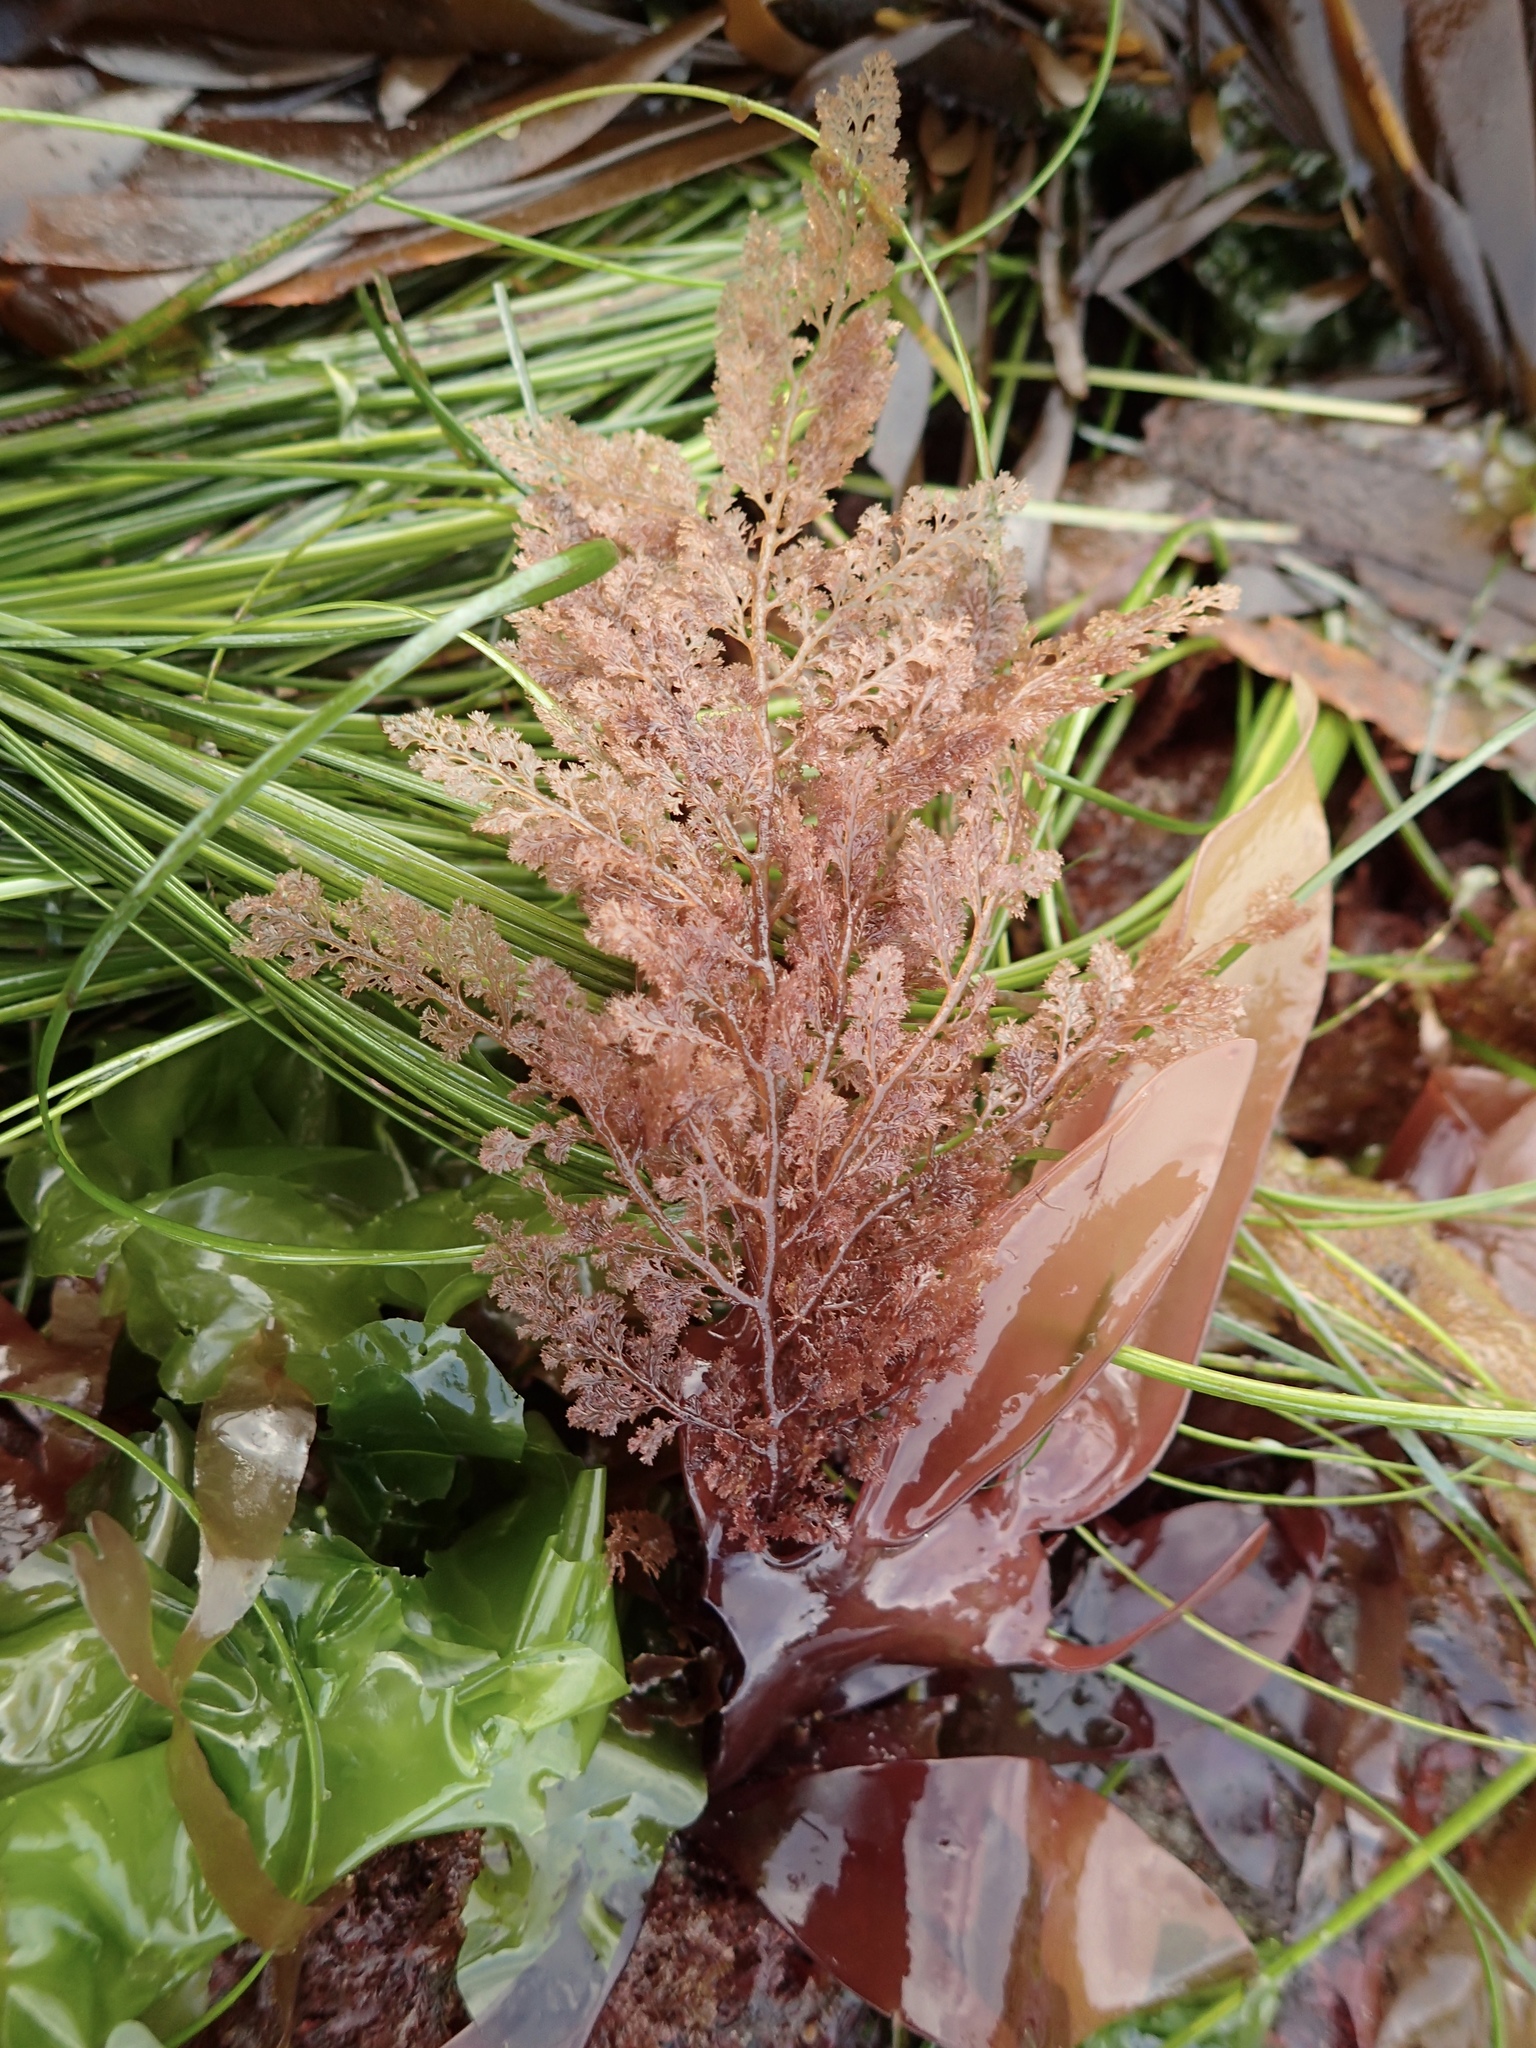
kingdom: Plantae
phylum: Rhodophyta
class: Florideophyceae
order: Ceramiales
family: Ceramiaceae
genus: Microcladia
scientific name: Microcladia coulteri
